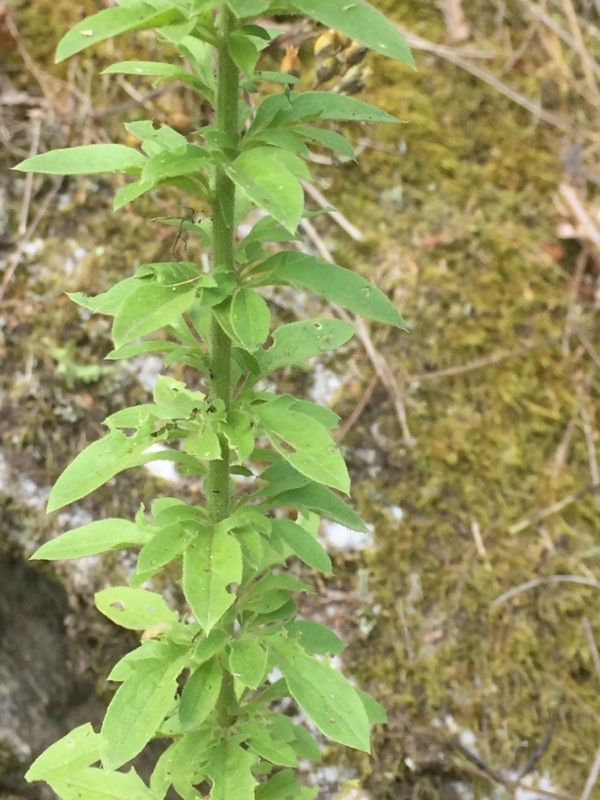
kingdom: Plantae
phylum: Tracheophyta
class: Magnoliopsida
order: Lamiales
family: Plantaginaceae
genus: Anarrhinum
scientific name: Anarrhinum duriminium
